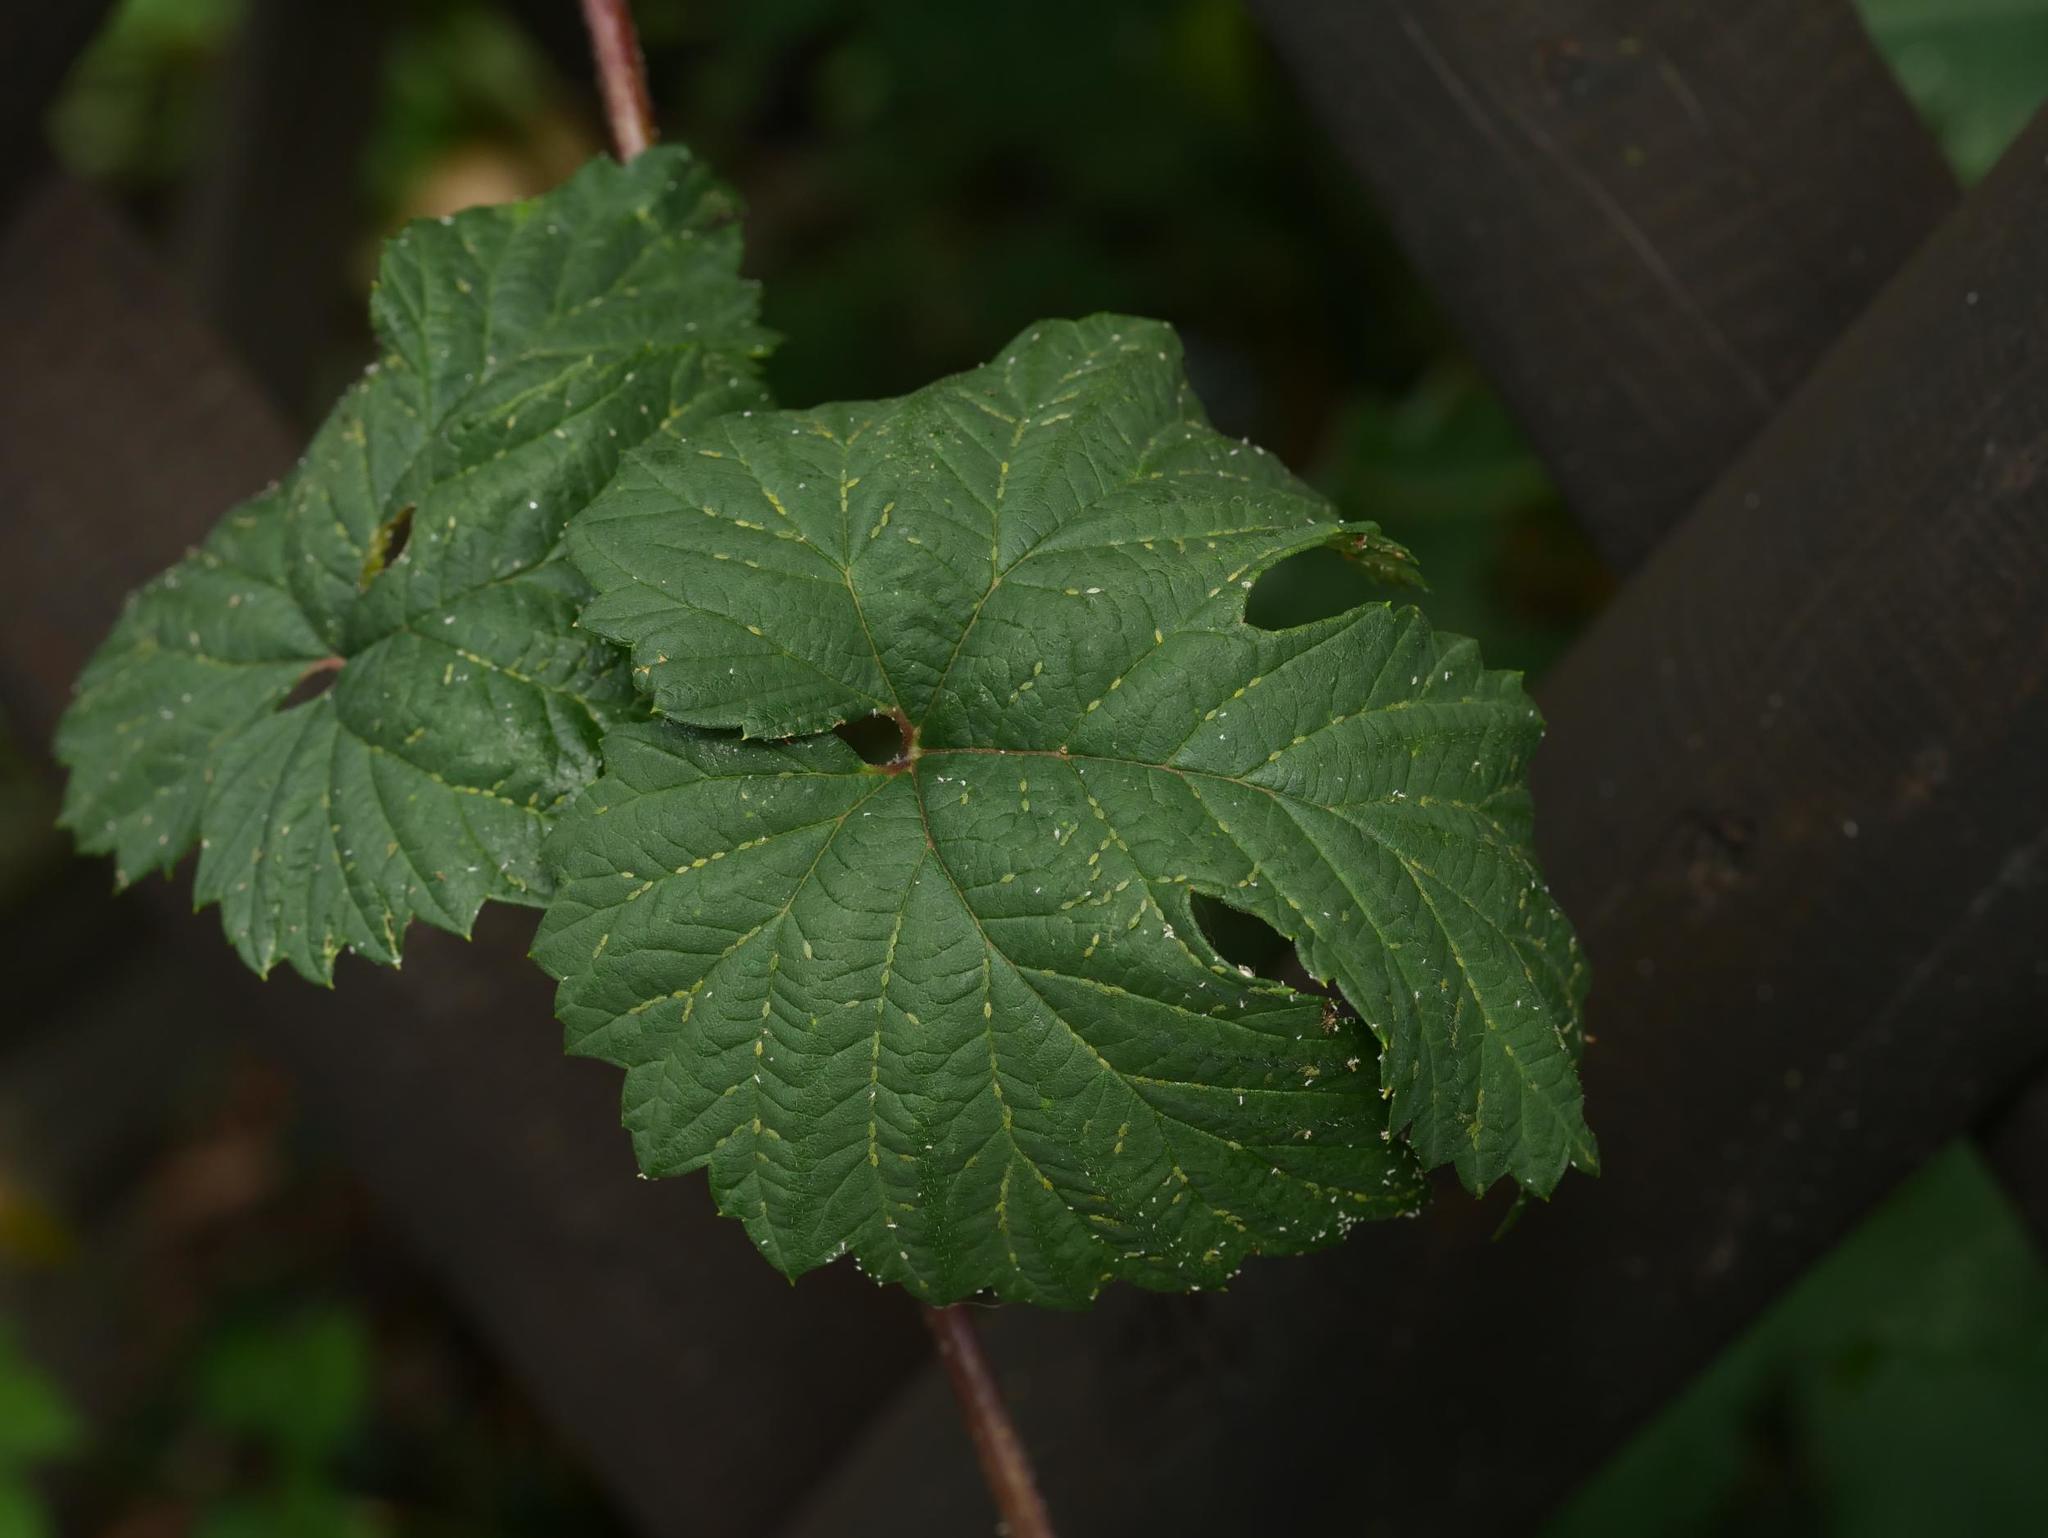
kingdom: Plantae
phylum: Tracheophyta
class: Magnoliopsida
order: Rosales
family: Cannabaceae
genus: Humulus
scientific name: Humulus lupulus
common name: Hop
